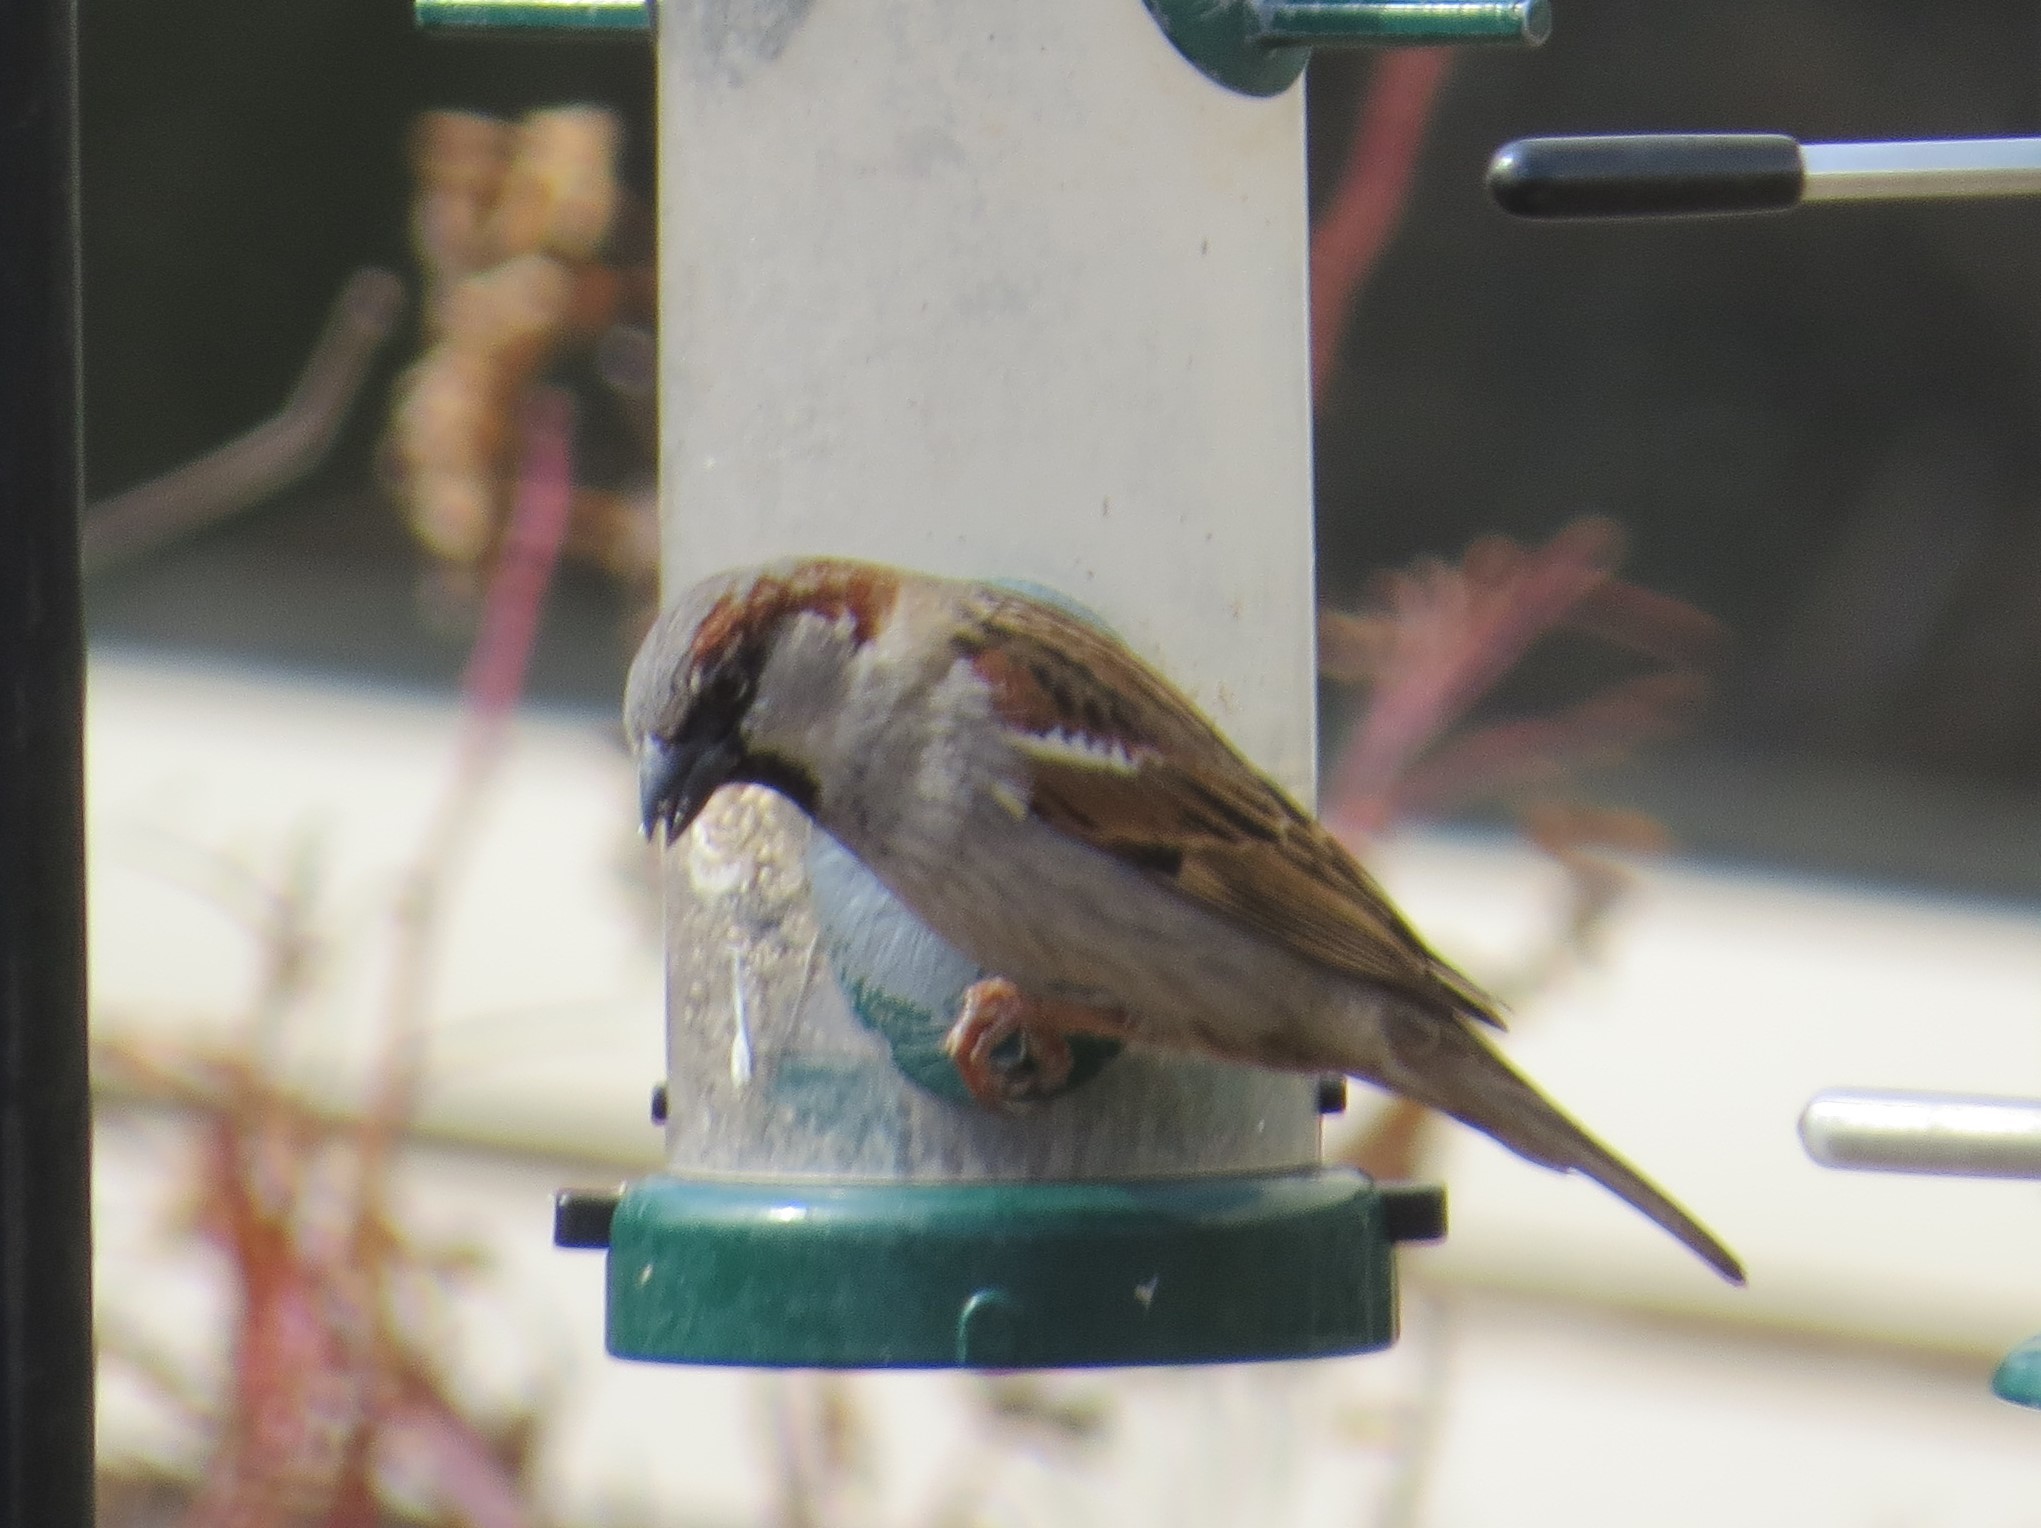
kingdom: Animalia
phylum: Chordata
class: Aves
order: Passeriformes
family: Passeridae
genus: Passer
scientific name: Passer domesticus
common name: House sparrow
